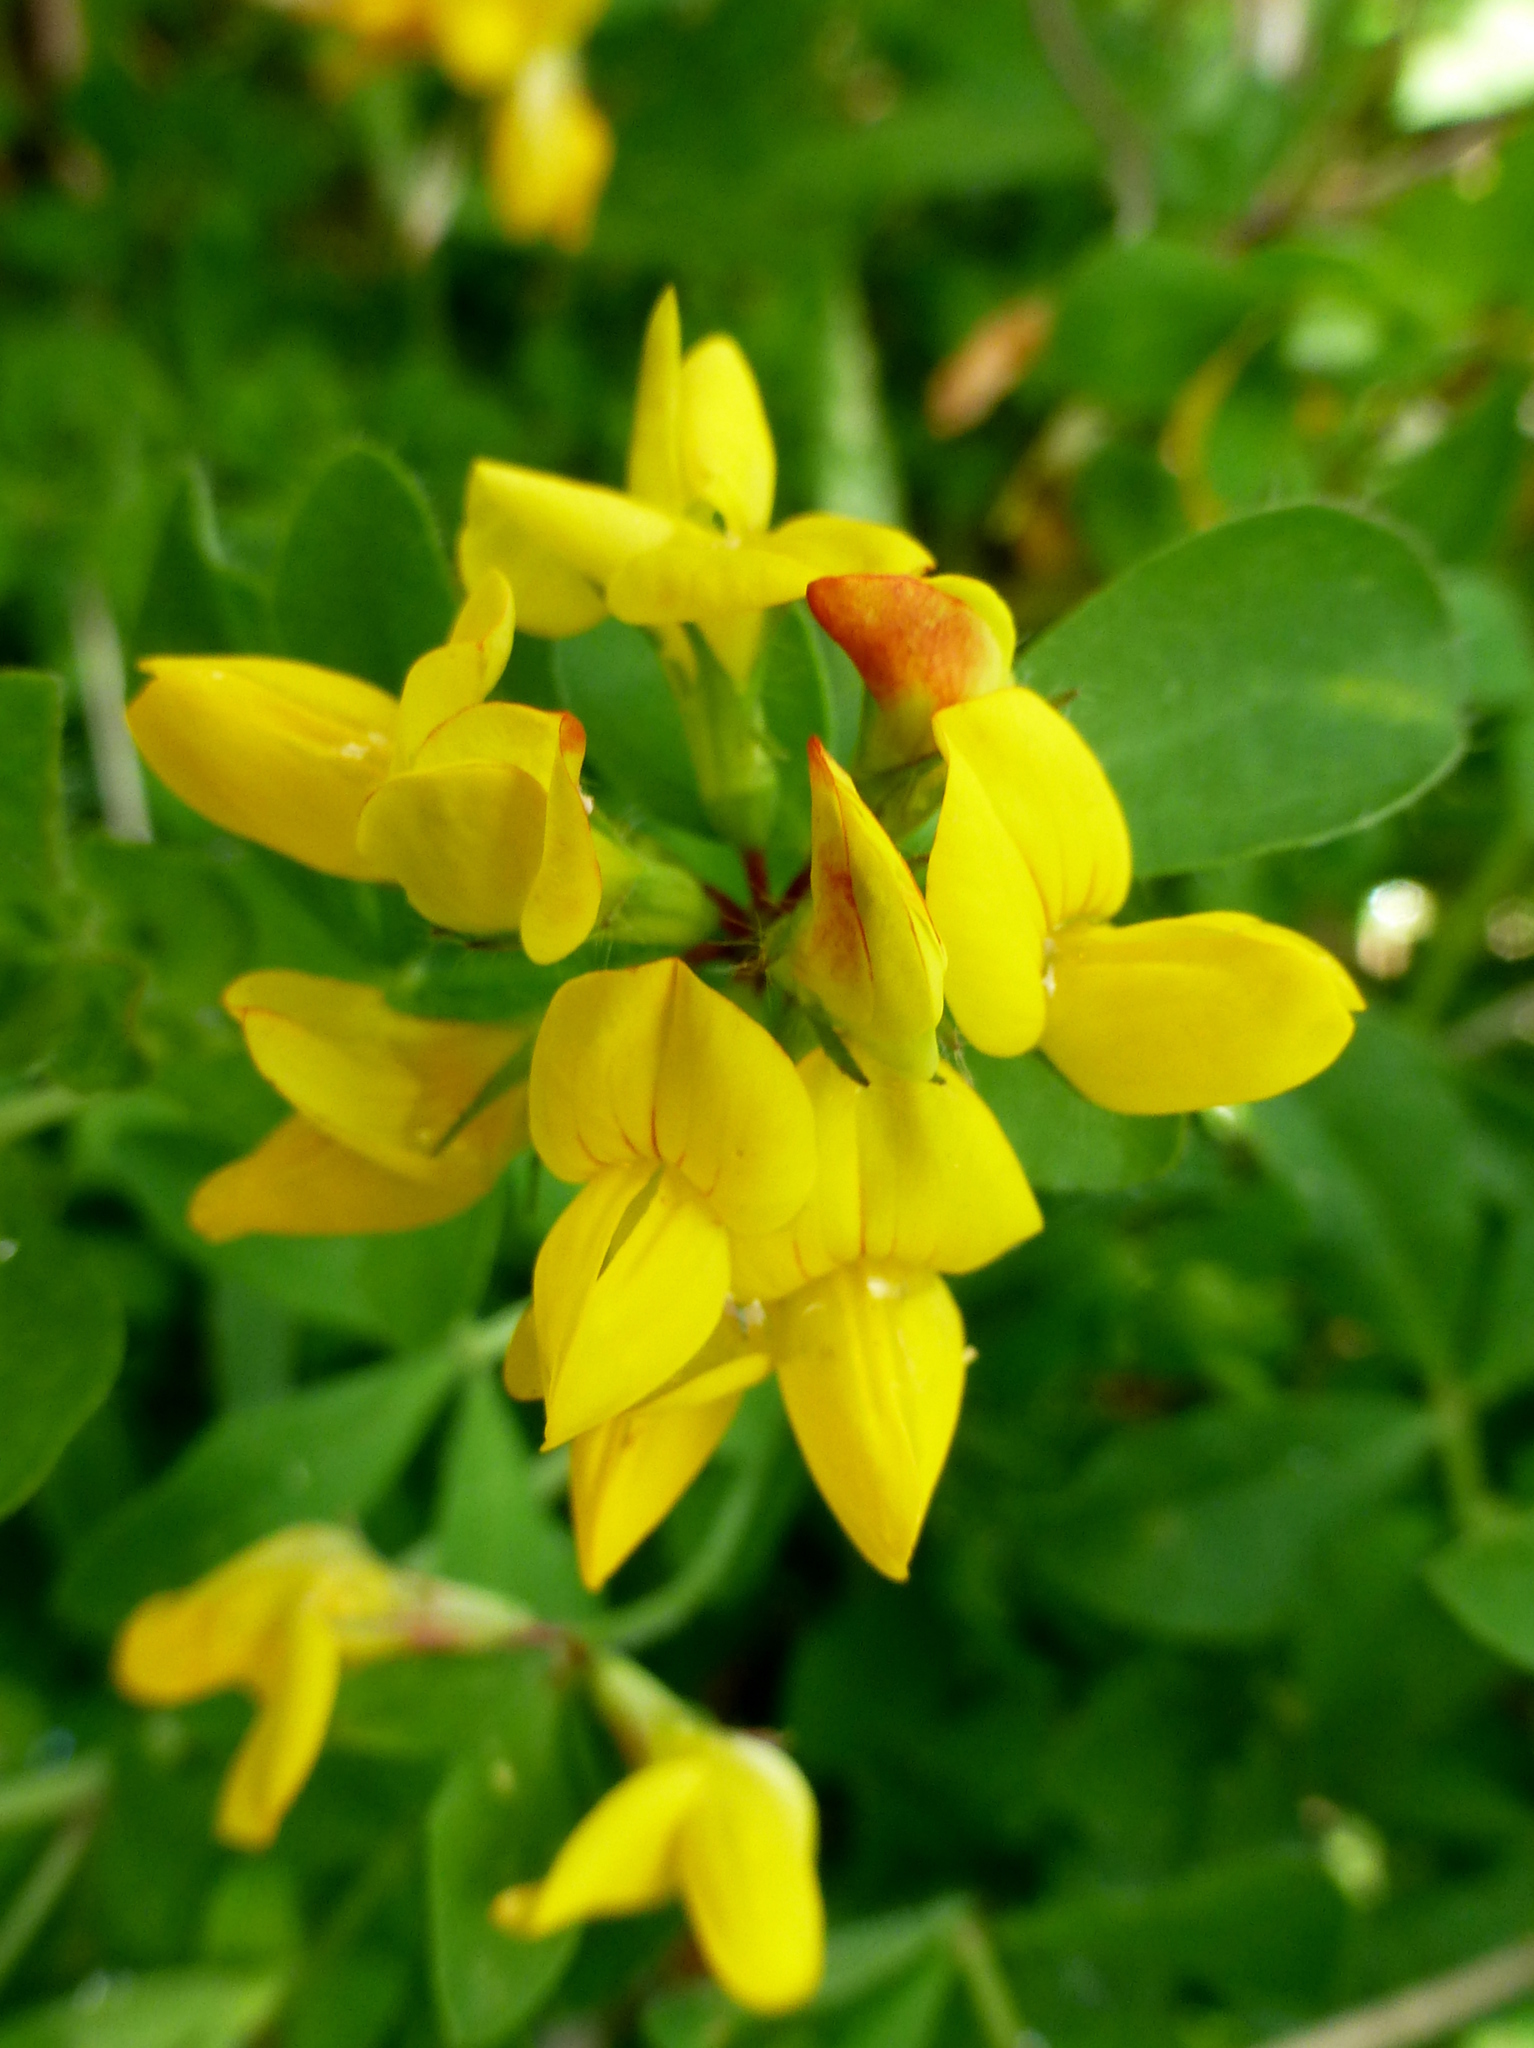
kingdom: Plantae
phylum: Tracheophyta
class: Magnoliopsida
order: Fabales
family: Fabaceae
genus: Lotus
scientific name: Lotus pedunculatus
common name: Greater birdsfoot-trefoil
